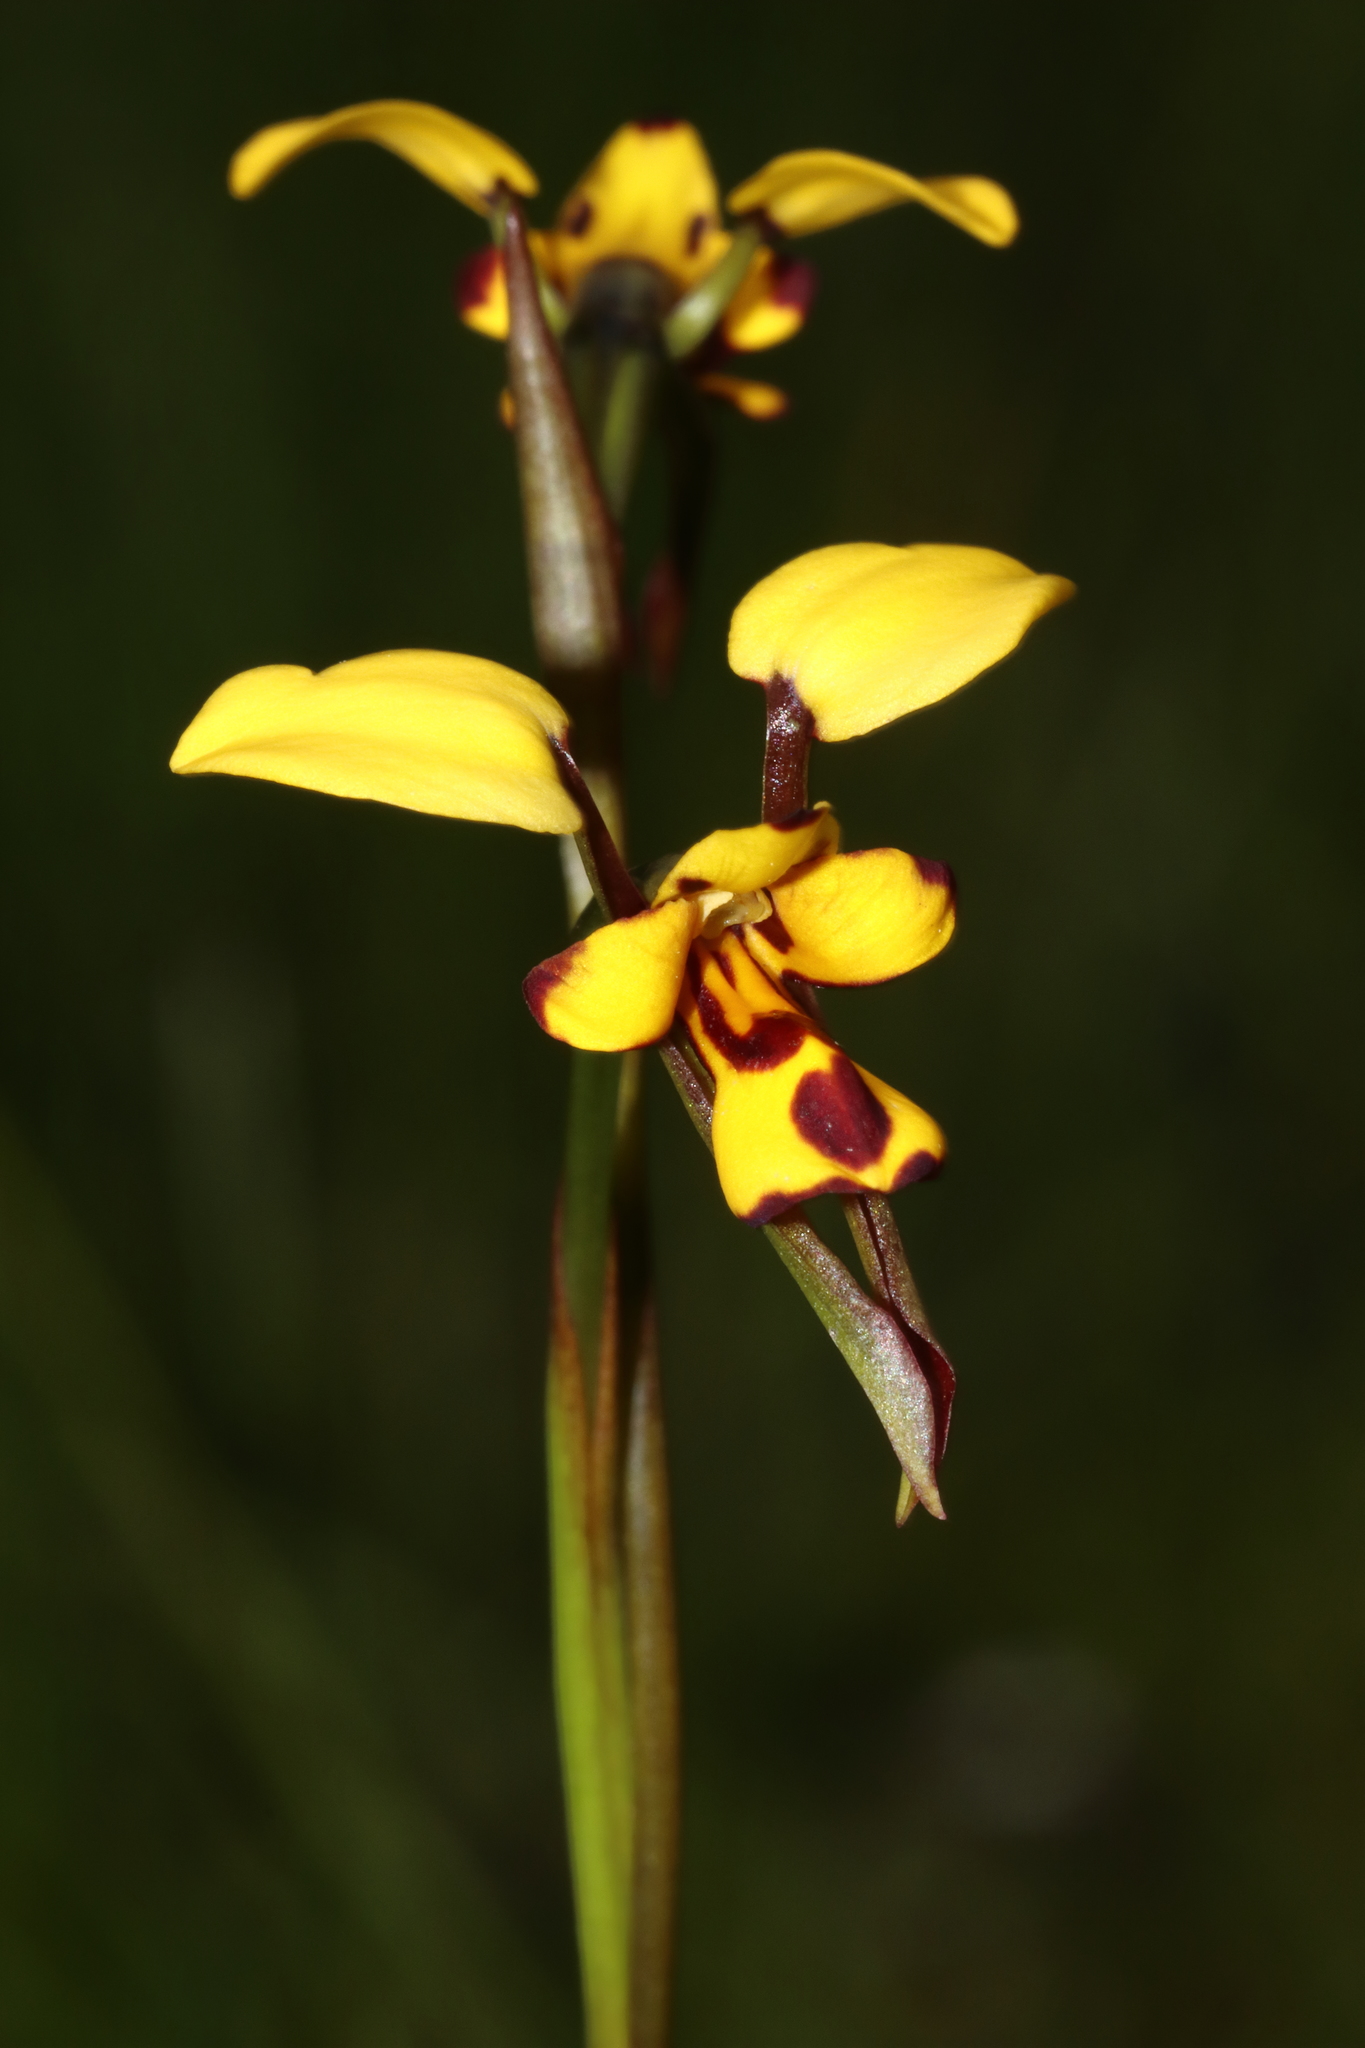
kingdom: Plantae
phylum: Tracheophyta
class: Liliopsida
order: Asparagales
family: Orchidaceae
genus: Diuris
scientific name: Diuris laxiflora
